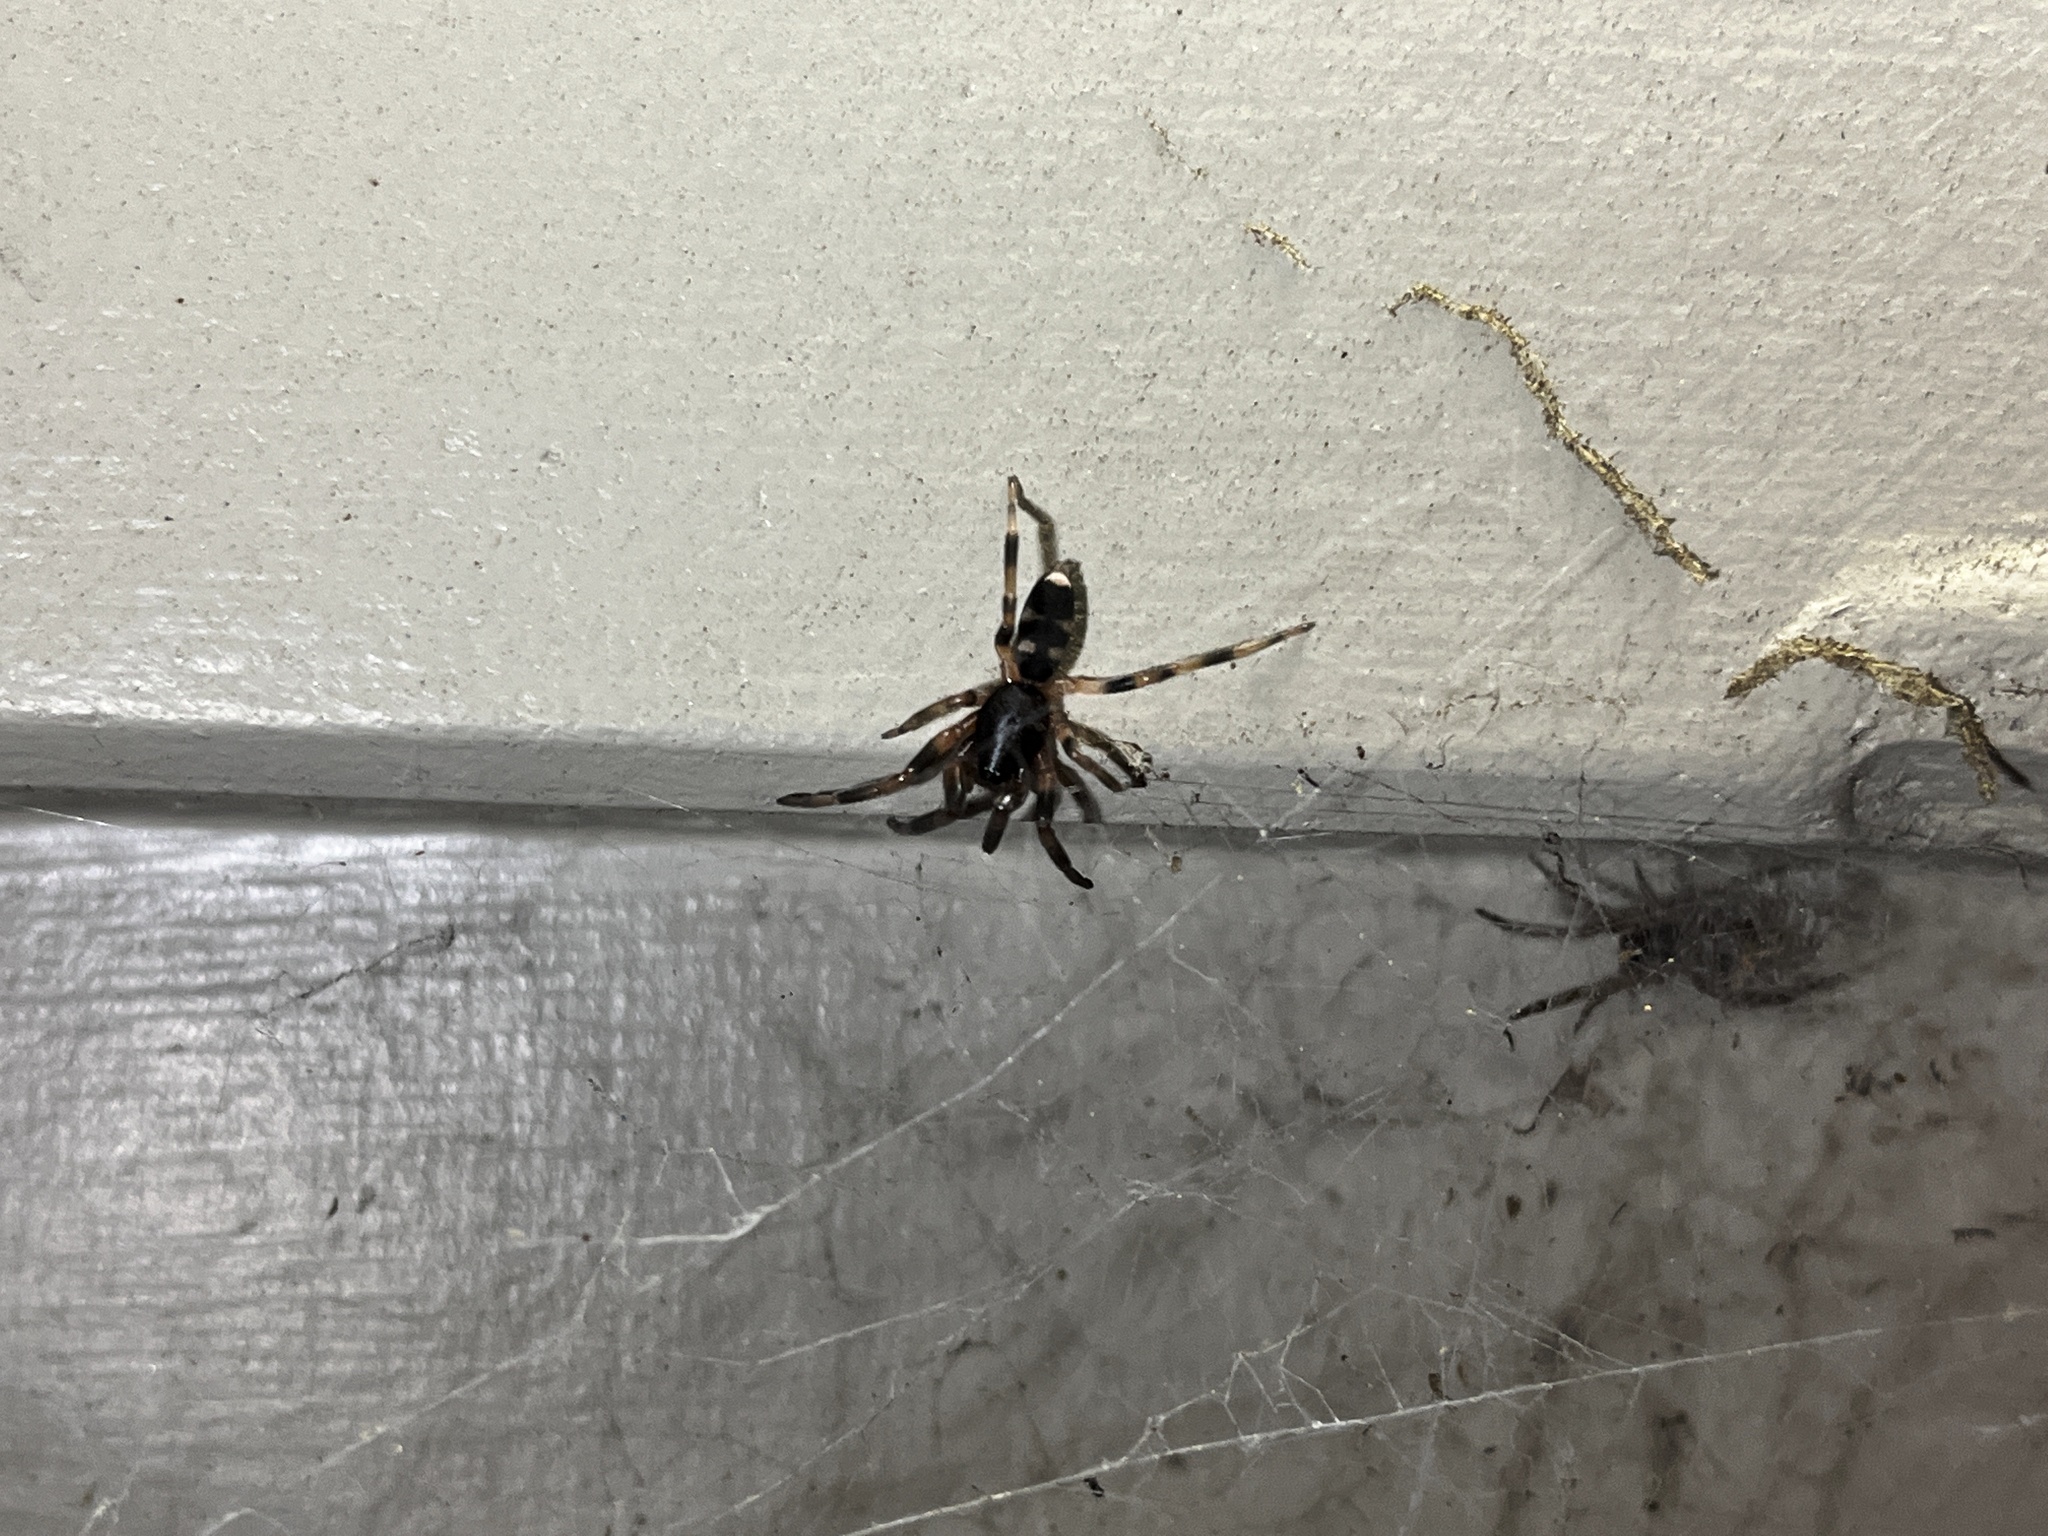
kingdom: Animalia
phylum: Arthropoda
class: Arachnida
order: Araneae
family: Lamponidae
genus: Lampona
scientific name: Lampona cylindrata
